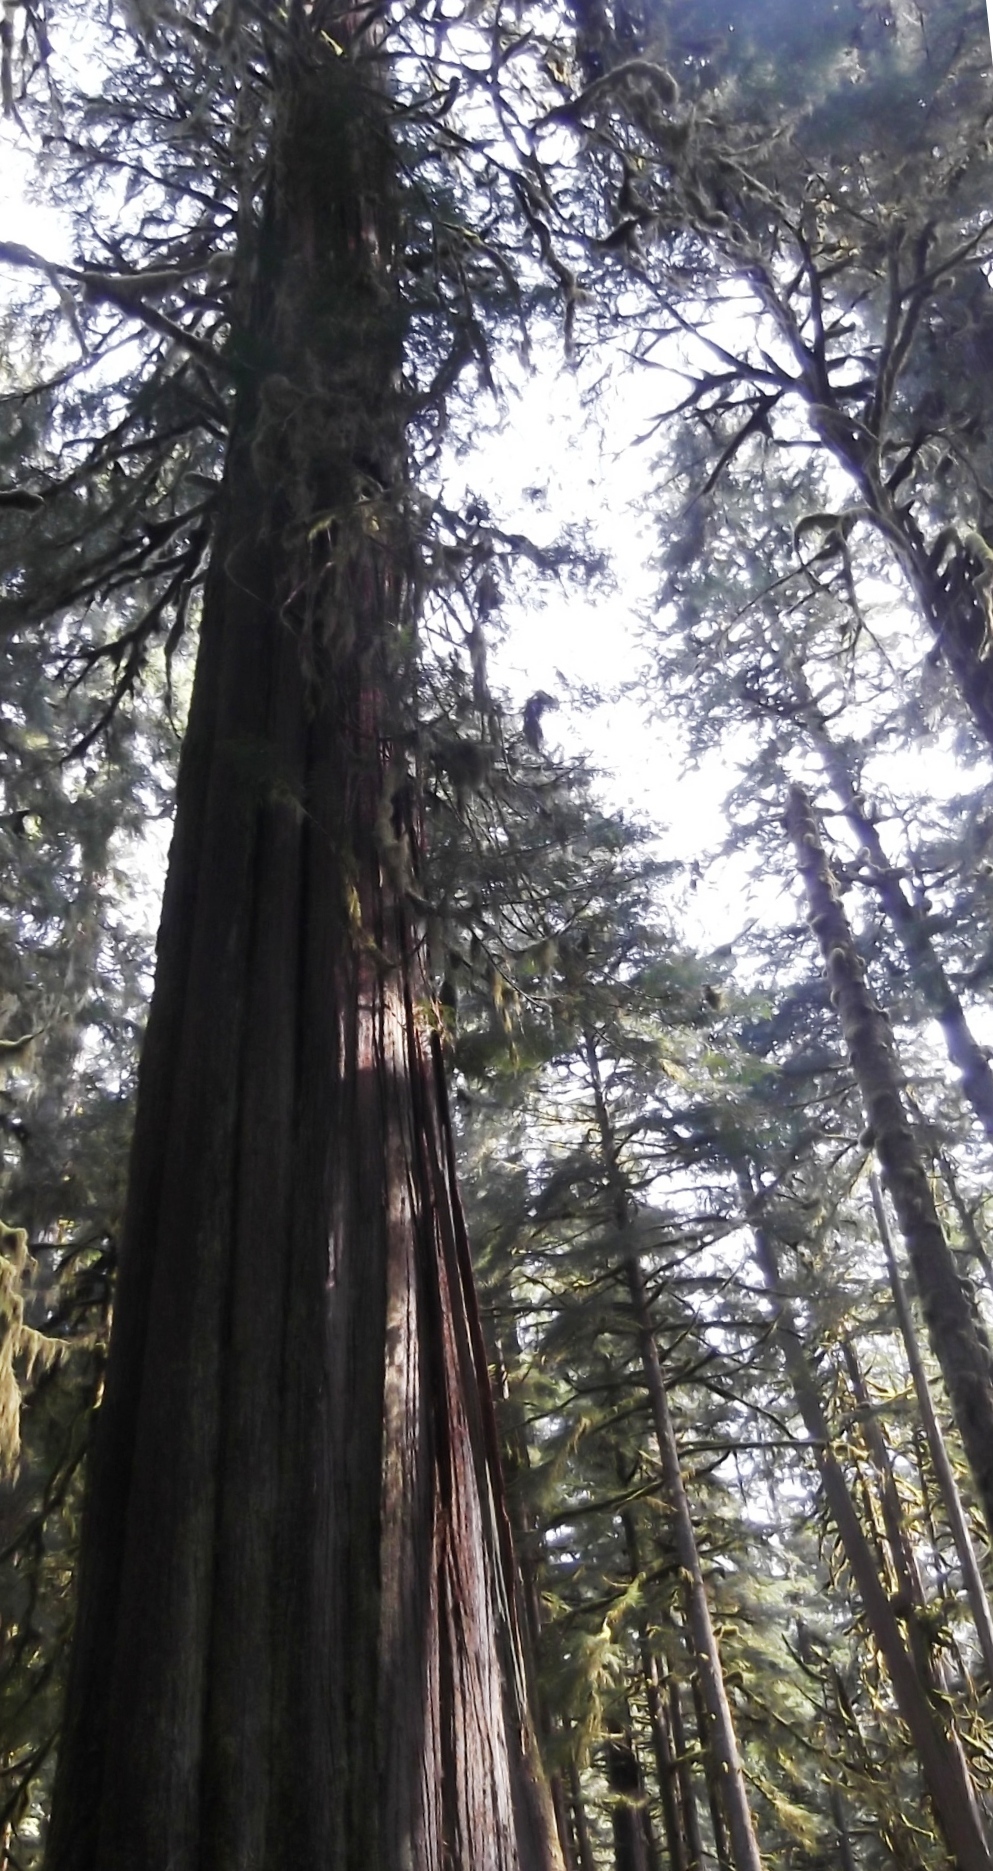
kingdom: Plantae
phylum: Tracheophyta
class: Pinopsida
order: Pinales
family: Cupressaceae
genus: Thuja
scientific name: Thuja plicata
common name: Western red-cedar
